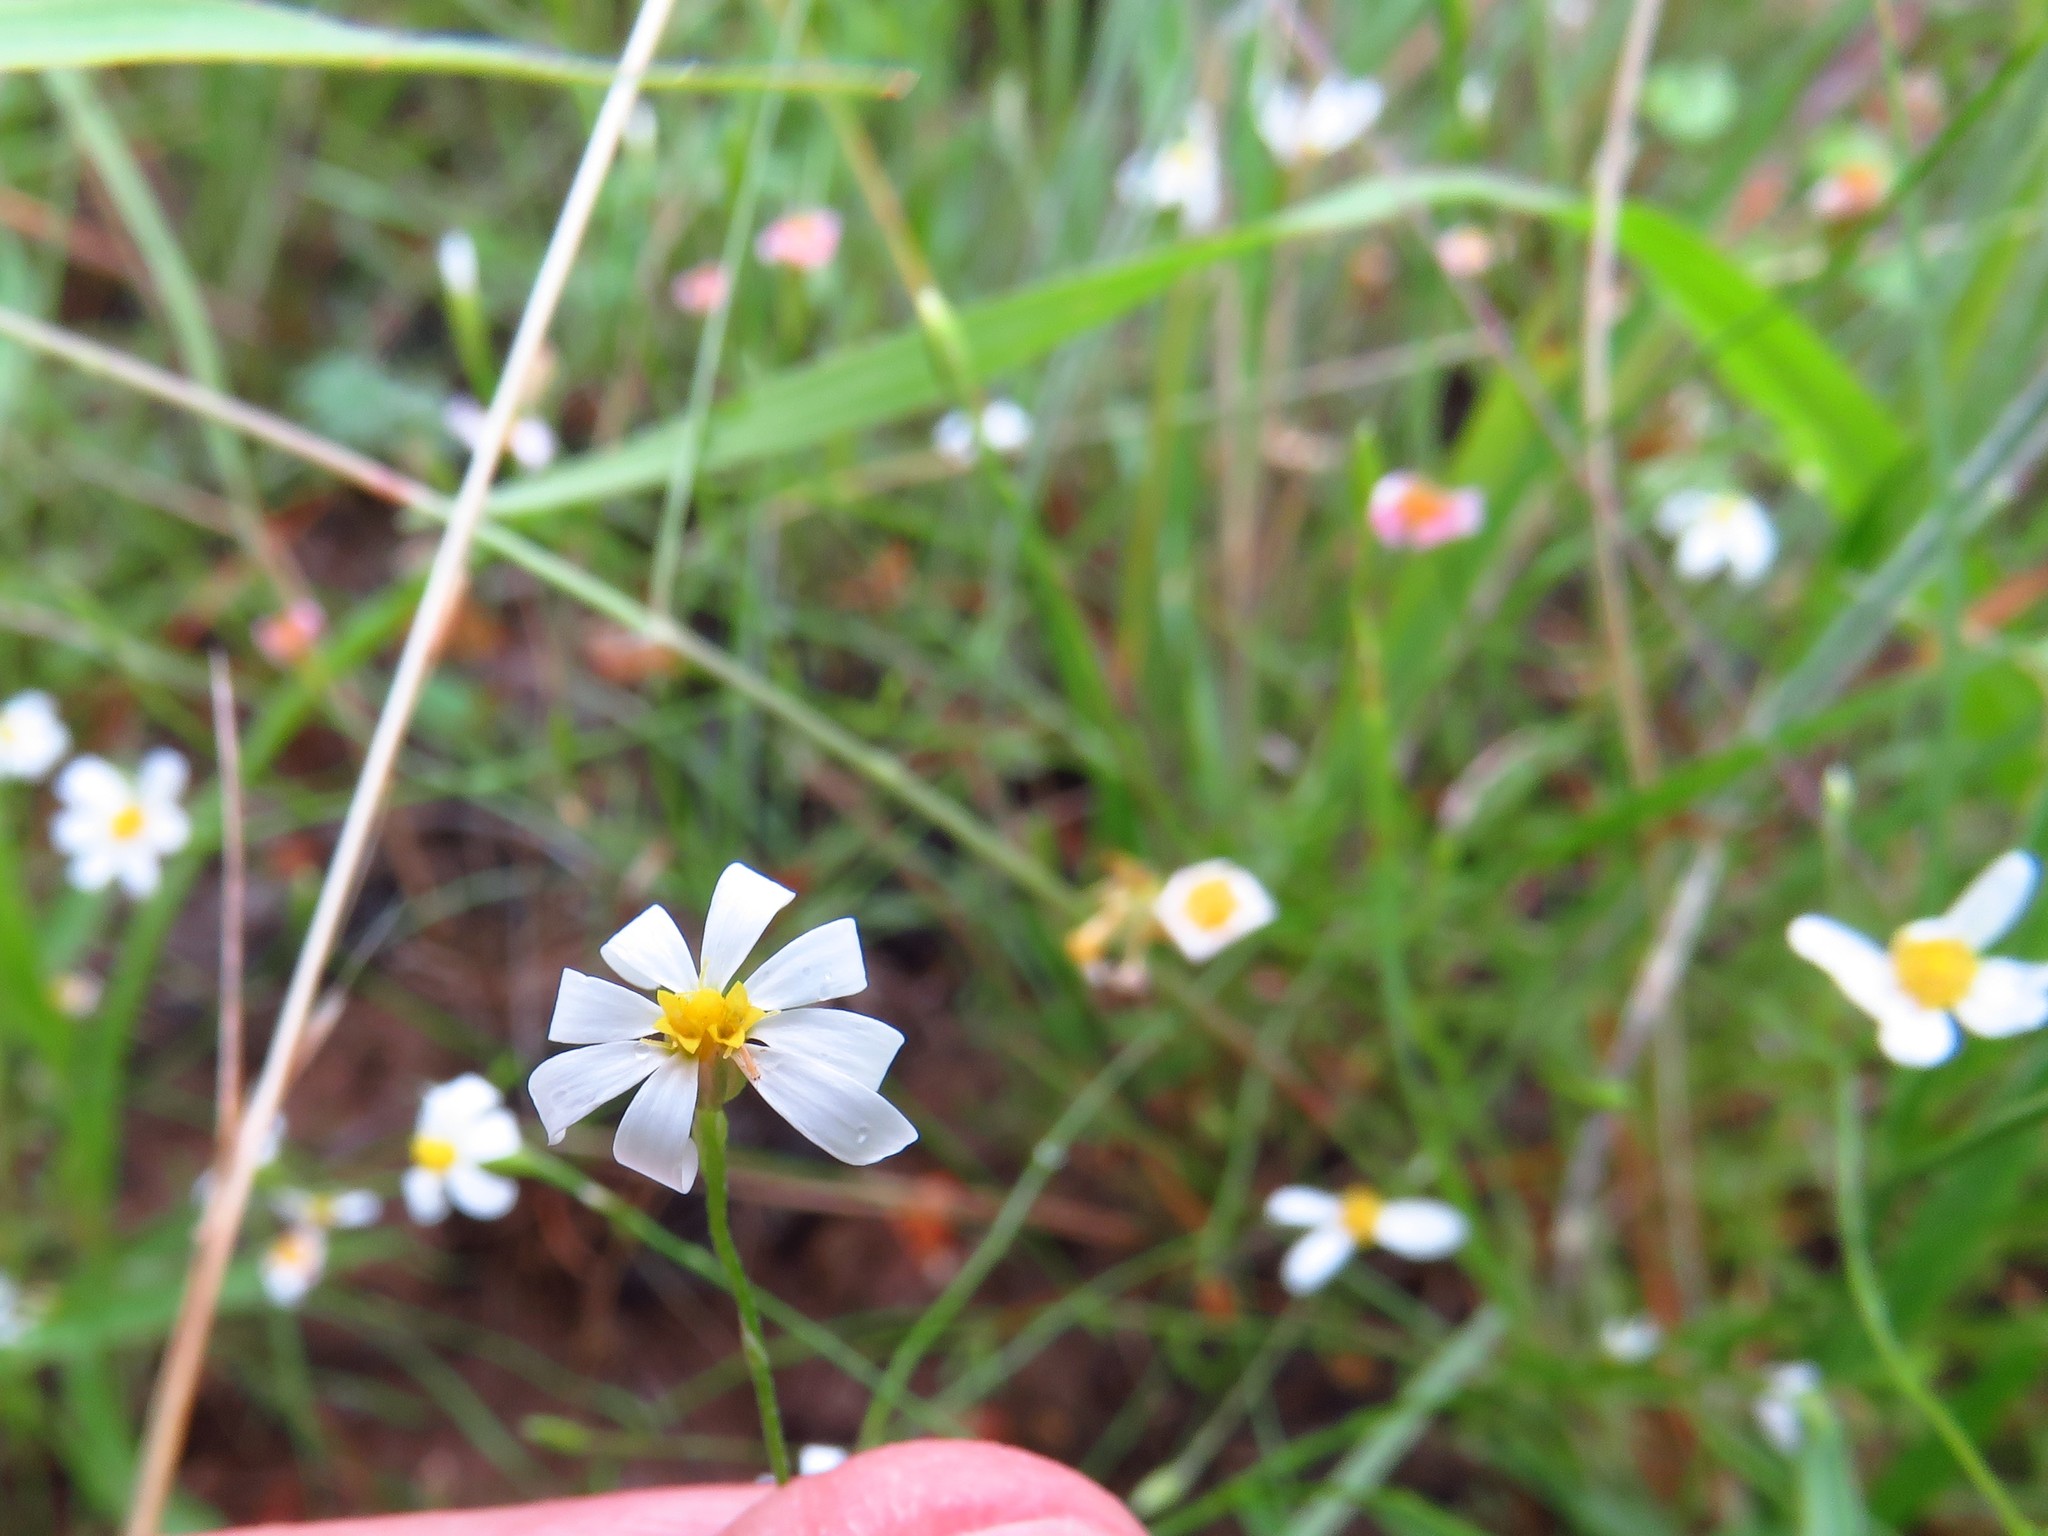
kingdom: Plantae
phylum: Tracheophyta
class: Magnoliopsida
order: Asterales
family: Asteraceae
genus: Chaetopappa
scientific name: Chaetopappa asteroides
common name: Tiny lazy daisy
